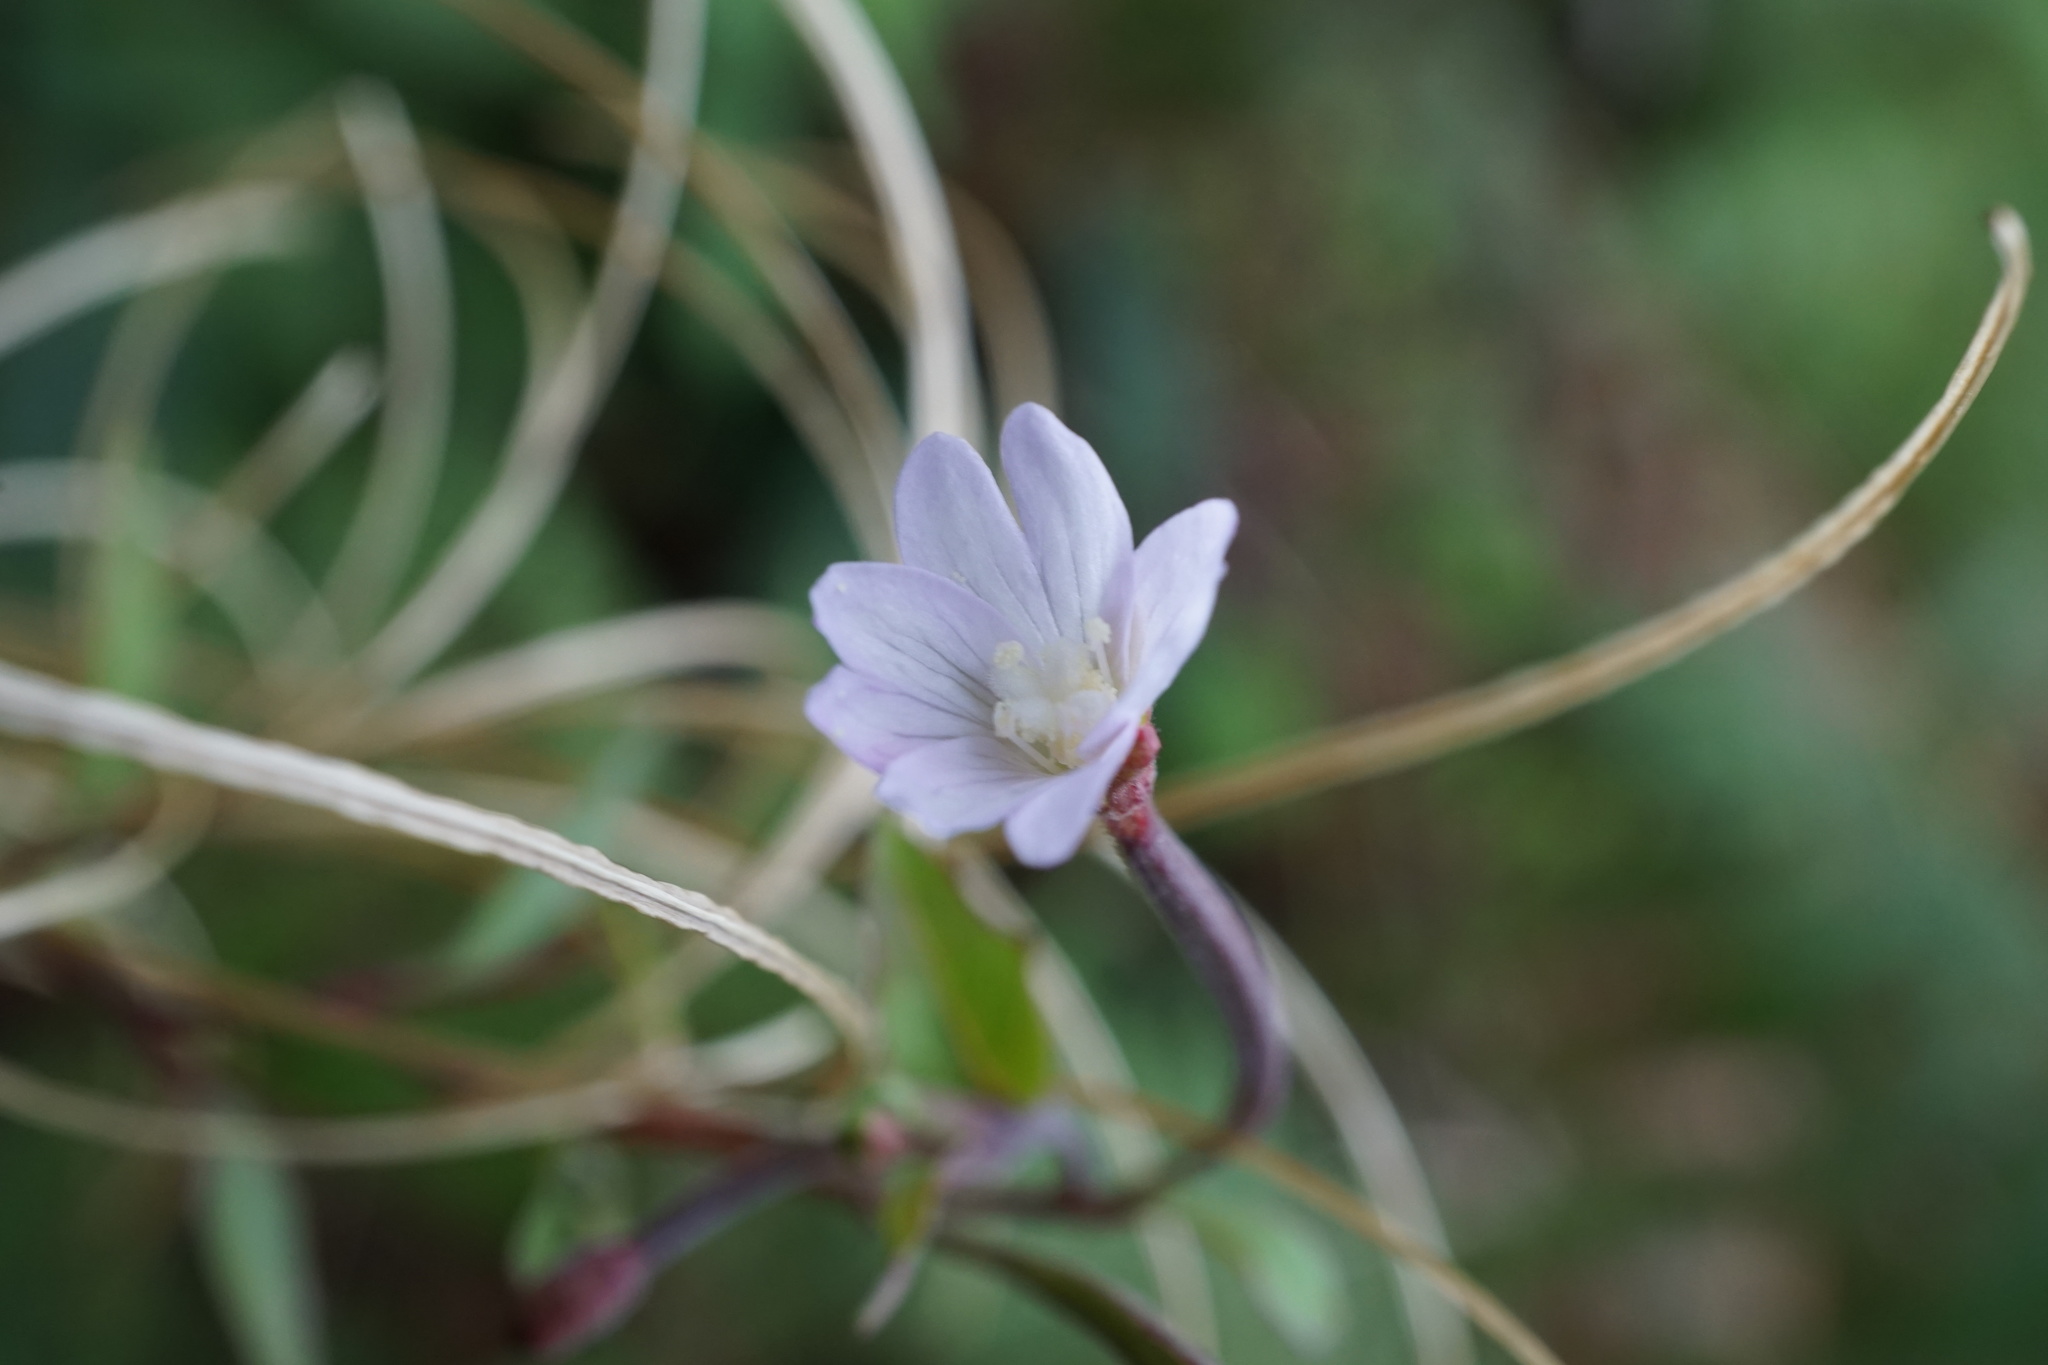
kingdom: Plantae
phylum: Tracheophyta
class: Magnoliopsida
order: Myrtales
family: Onagraceae
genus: Epilobium
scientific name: Epilobium montanum
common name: Broad-leaved willowherb
